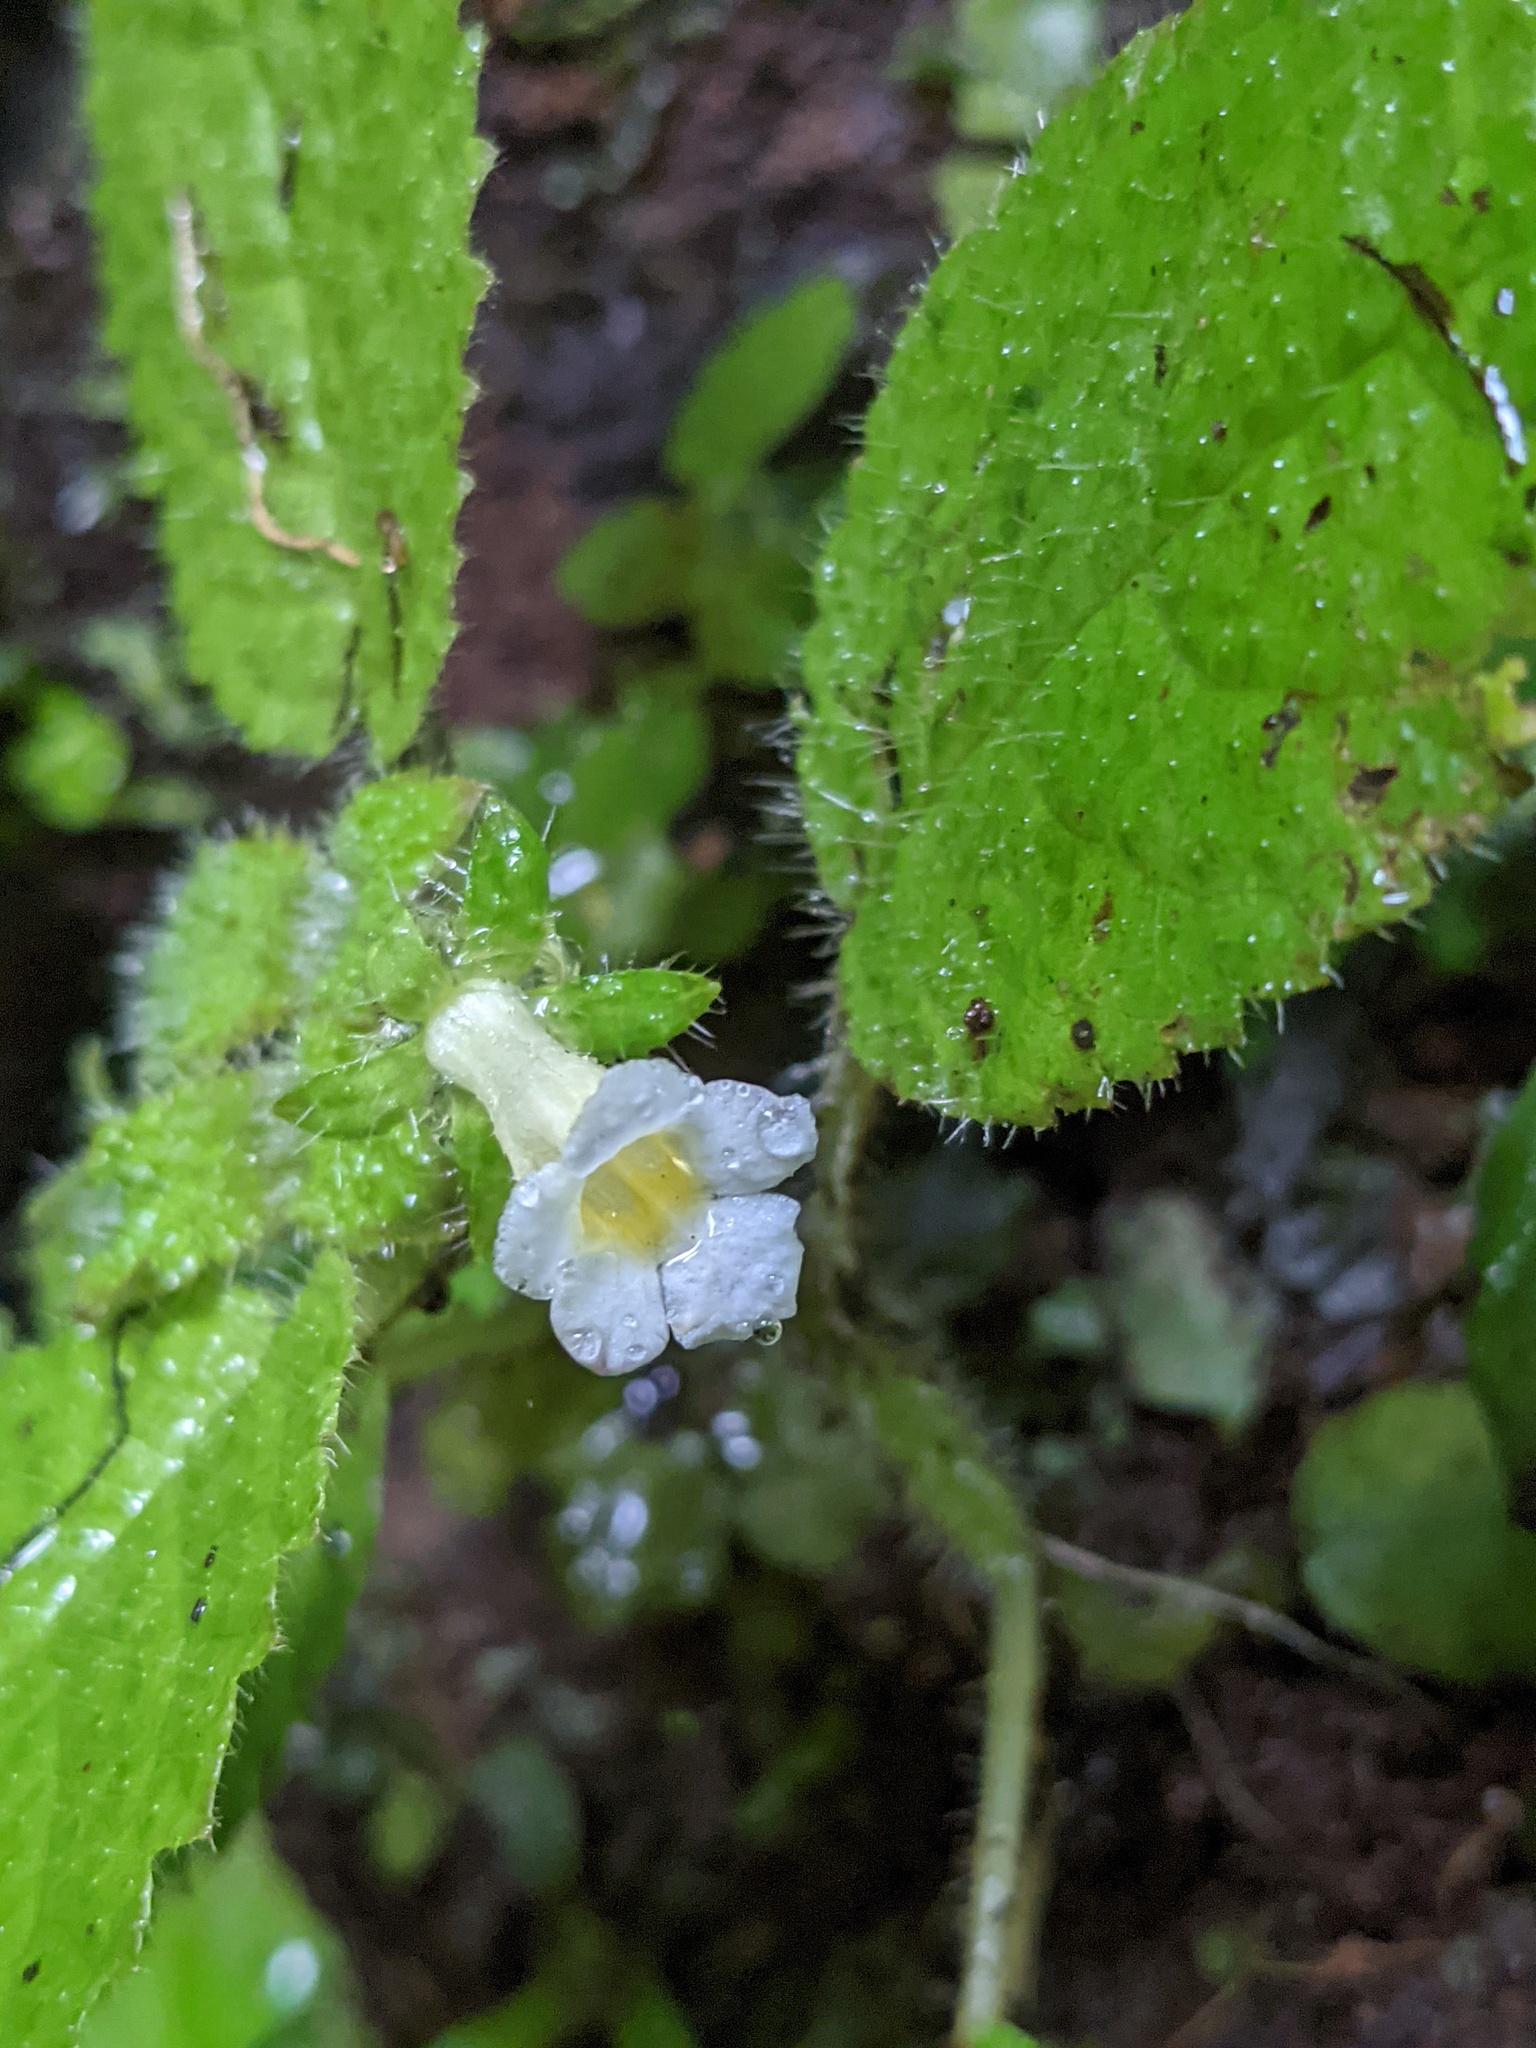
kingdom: Plantae
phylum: Tracheophyta
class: Magnoliopsida
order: Lamiales
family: Gesneriaceae
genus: Diastema
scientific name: Diastema affine
